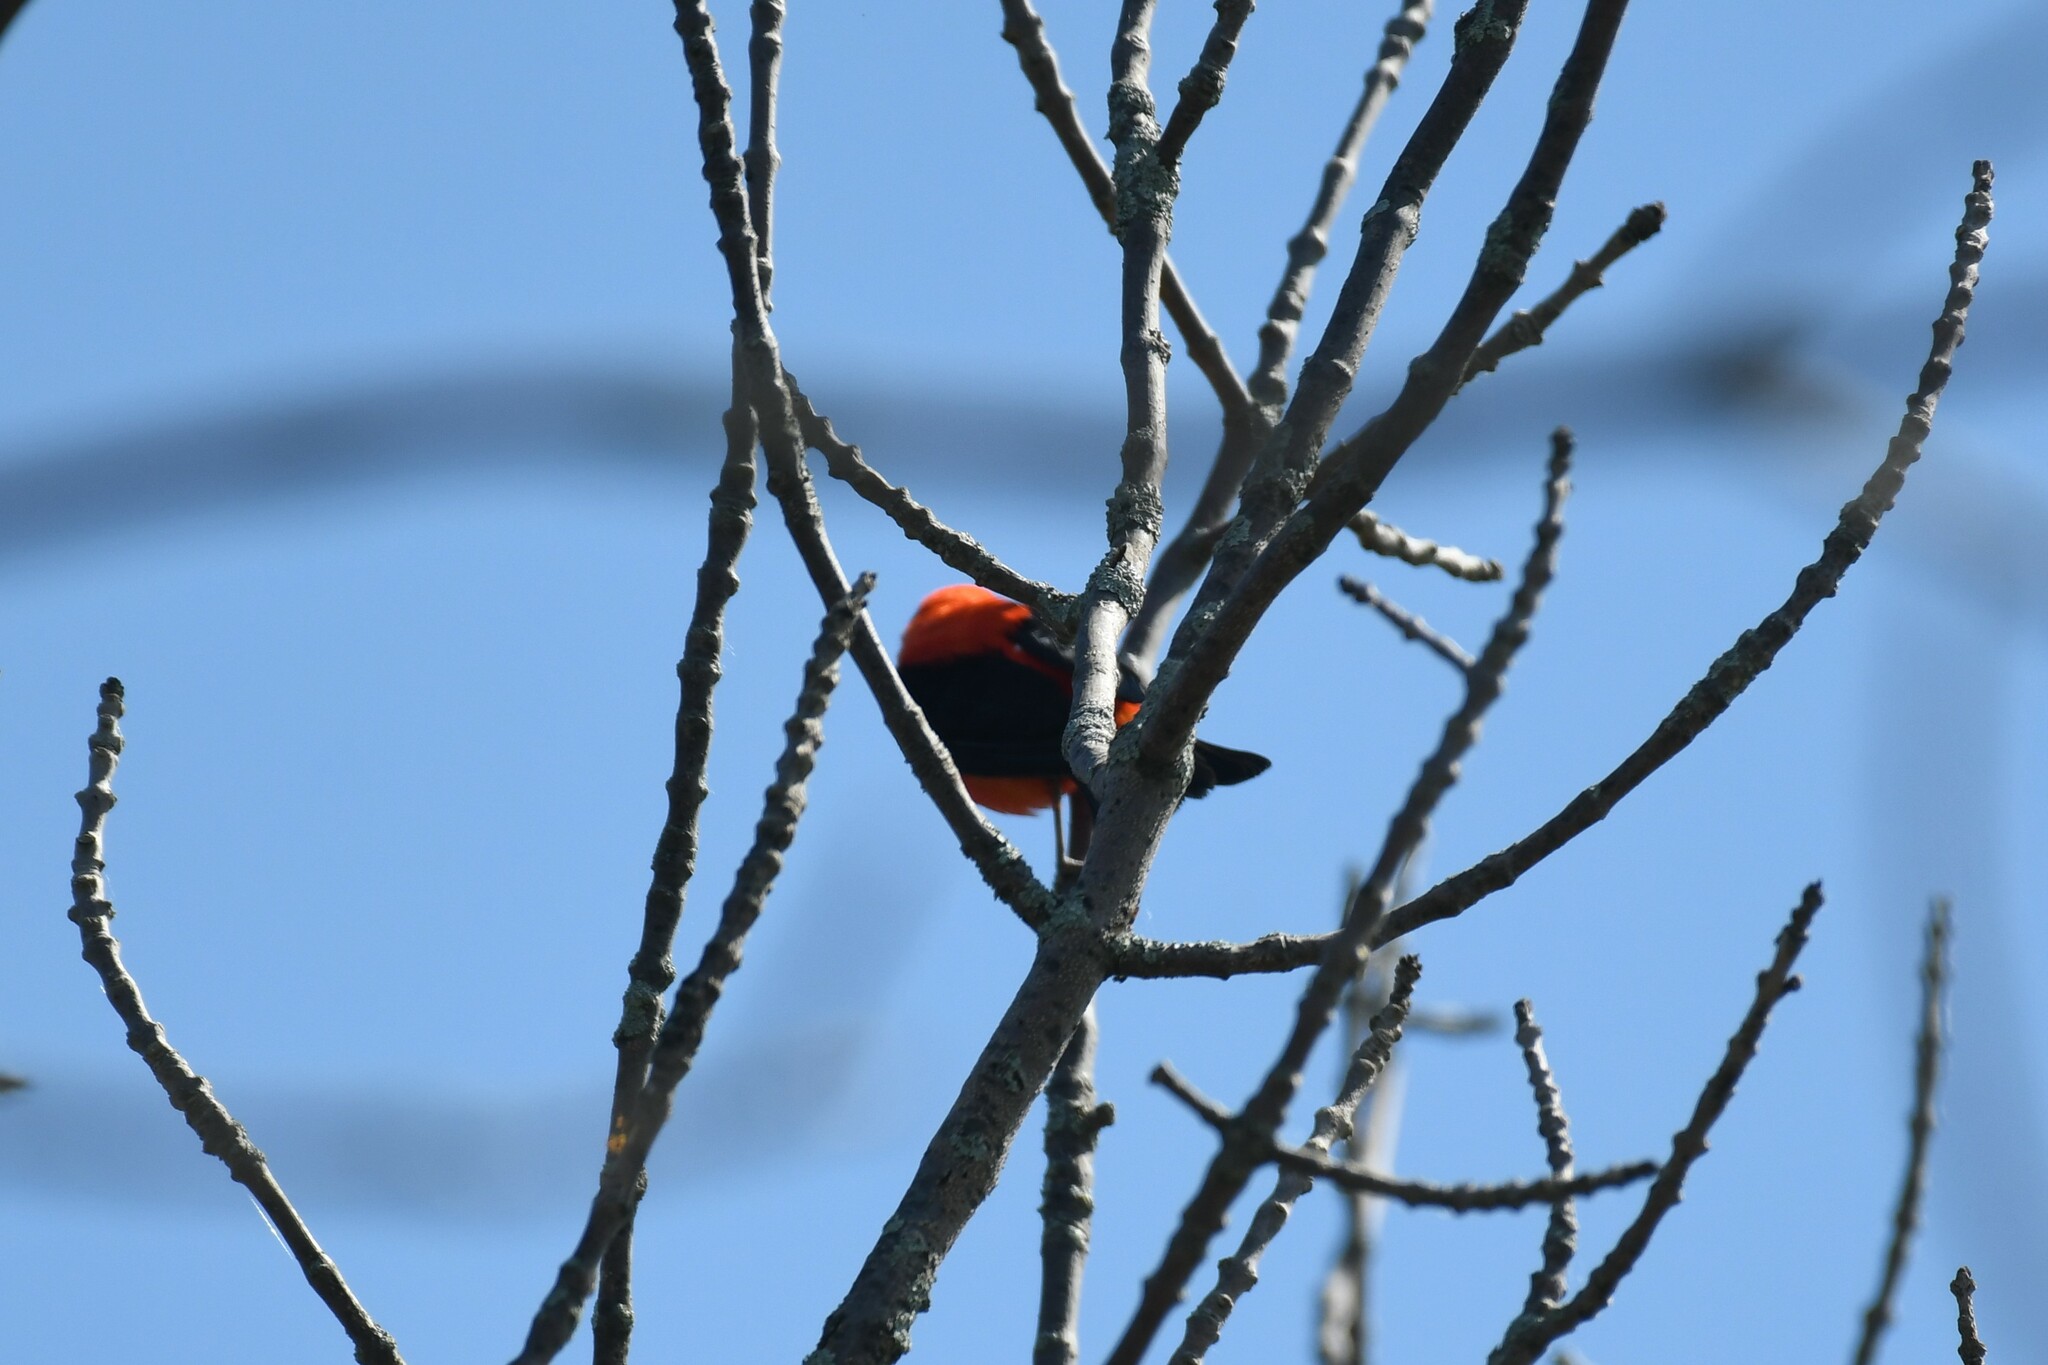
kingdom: Animalia
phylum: Chordata
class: Aves
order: Passeriformes
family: Cardinalidae
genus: Piranga
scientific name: Piranga olivacea
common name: Scarlet tanager
